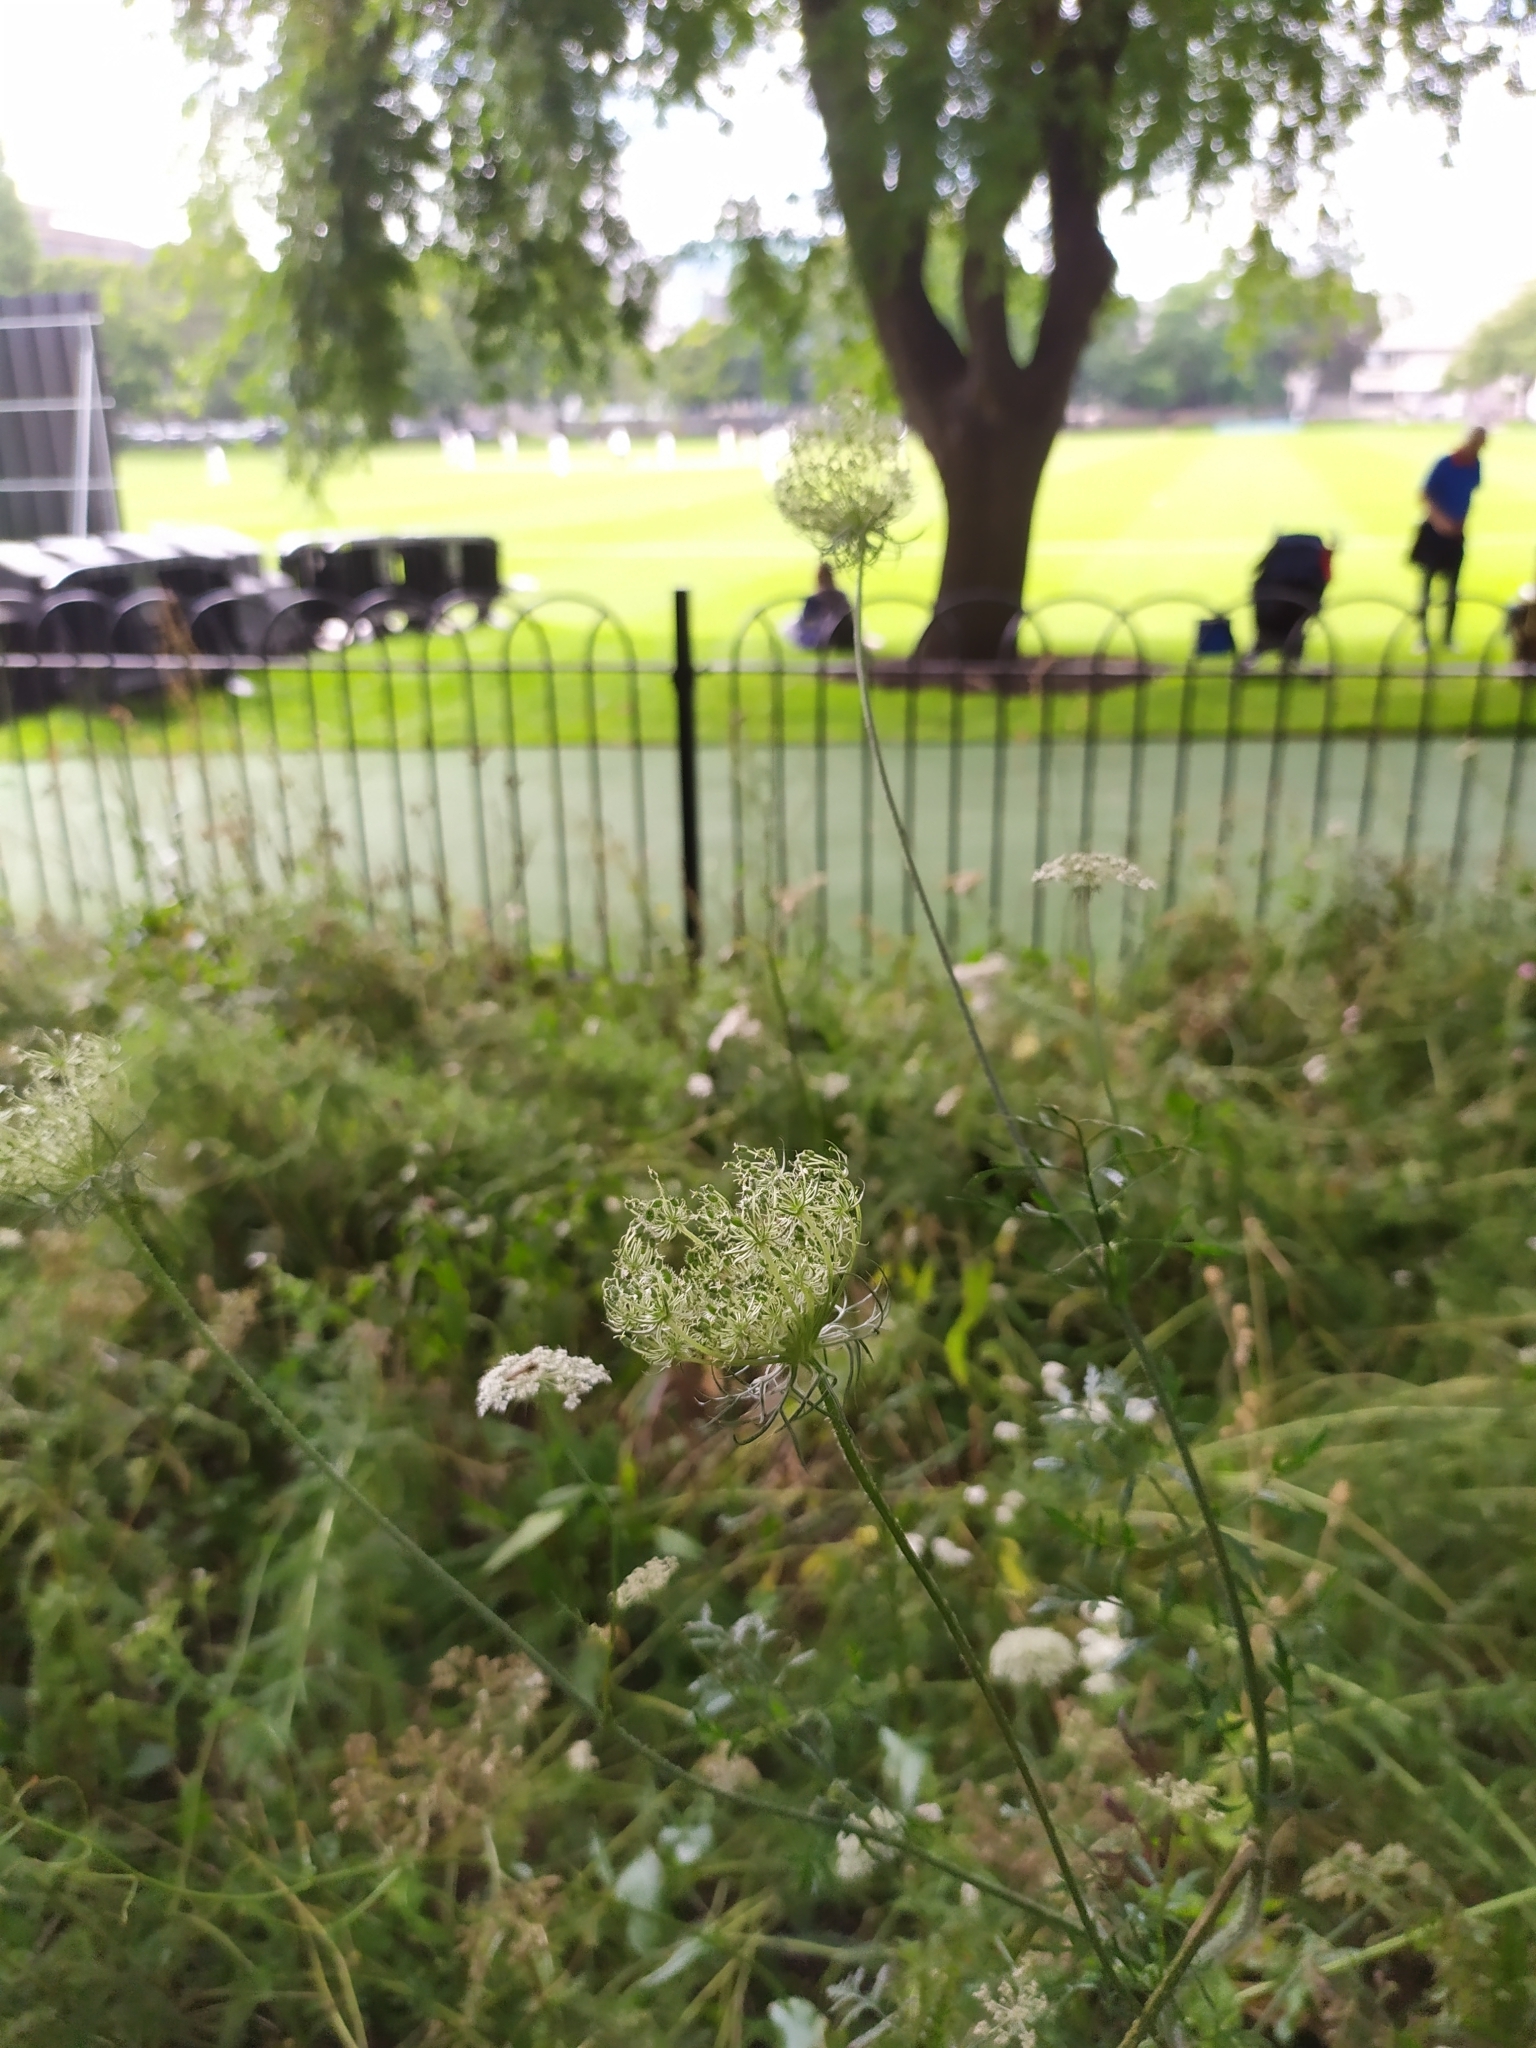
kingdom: Plantae
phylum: Tracheophyta
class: Magnoliopsida
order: Apiales
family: Apiaceae
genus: Daucus
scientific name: Daucus carota
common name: Wild carrot
